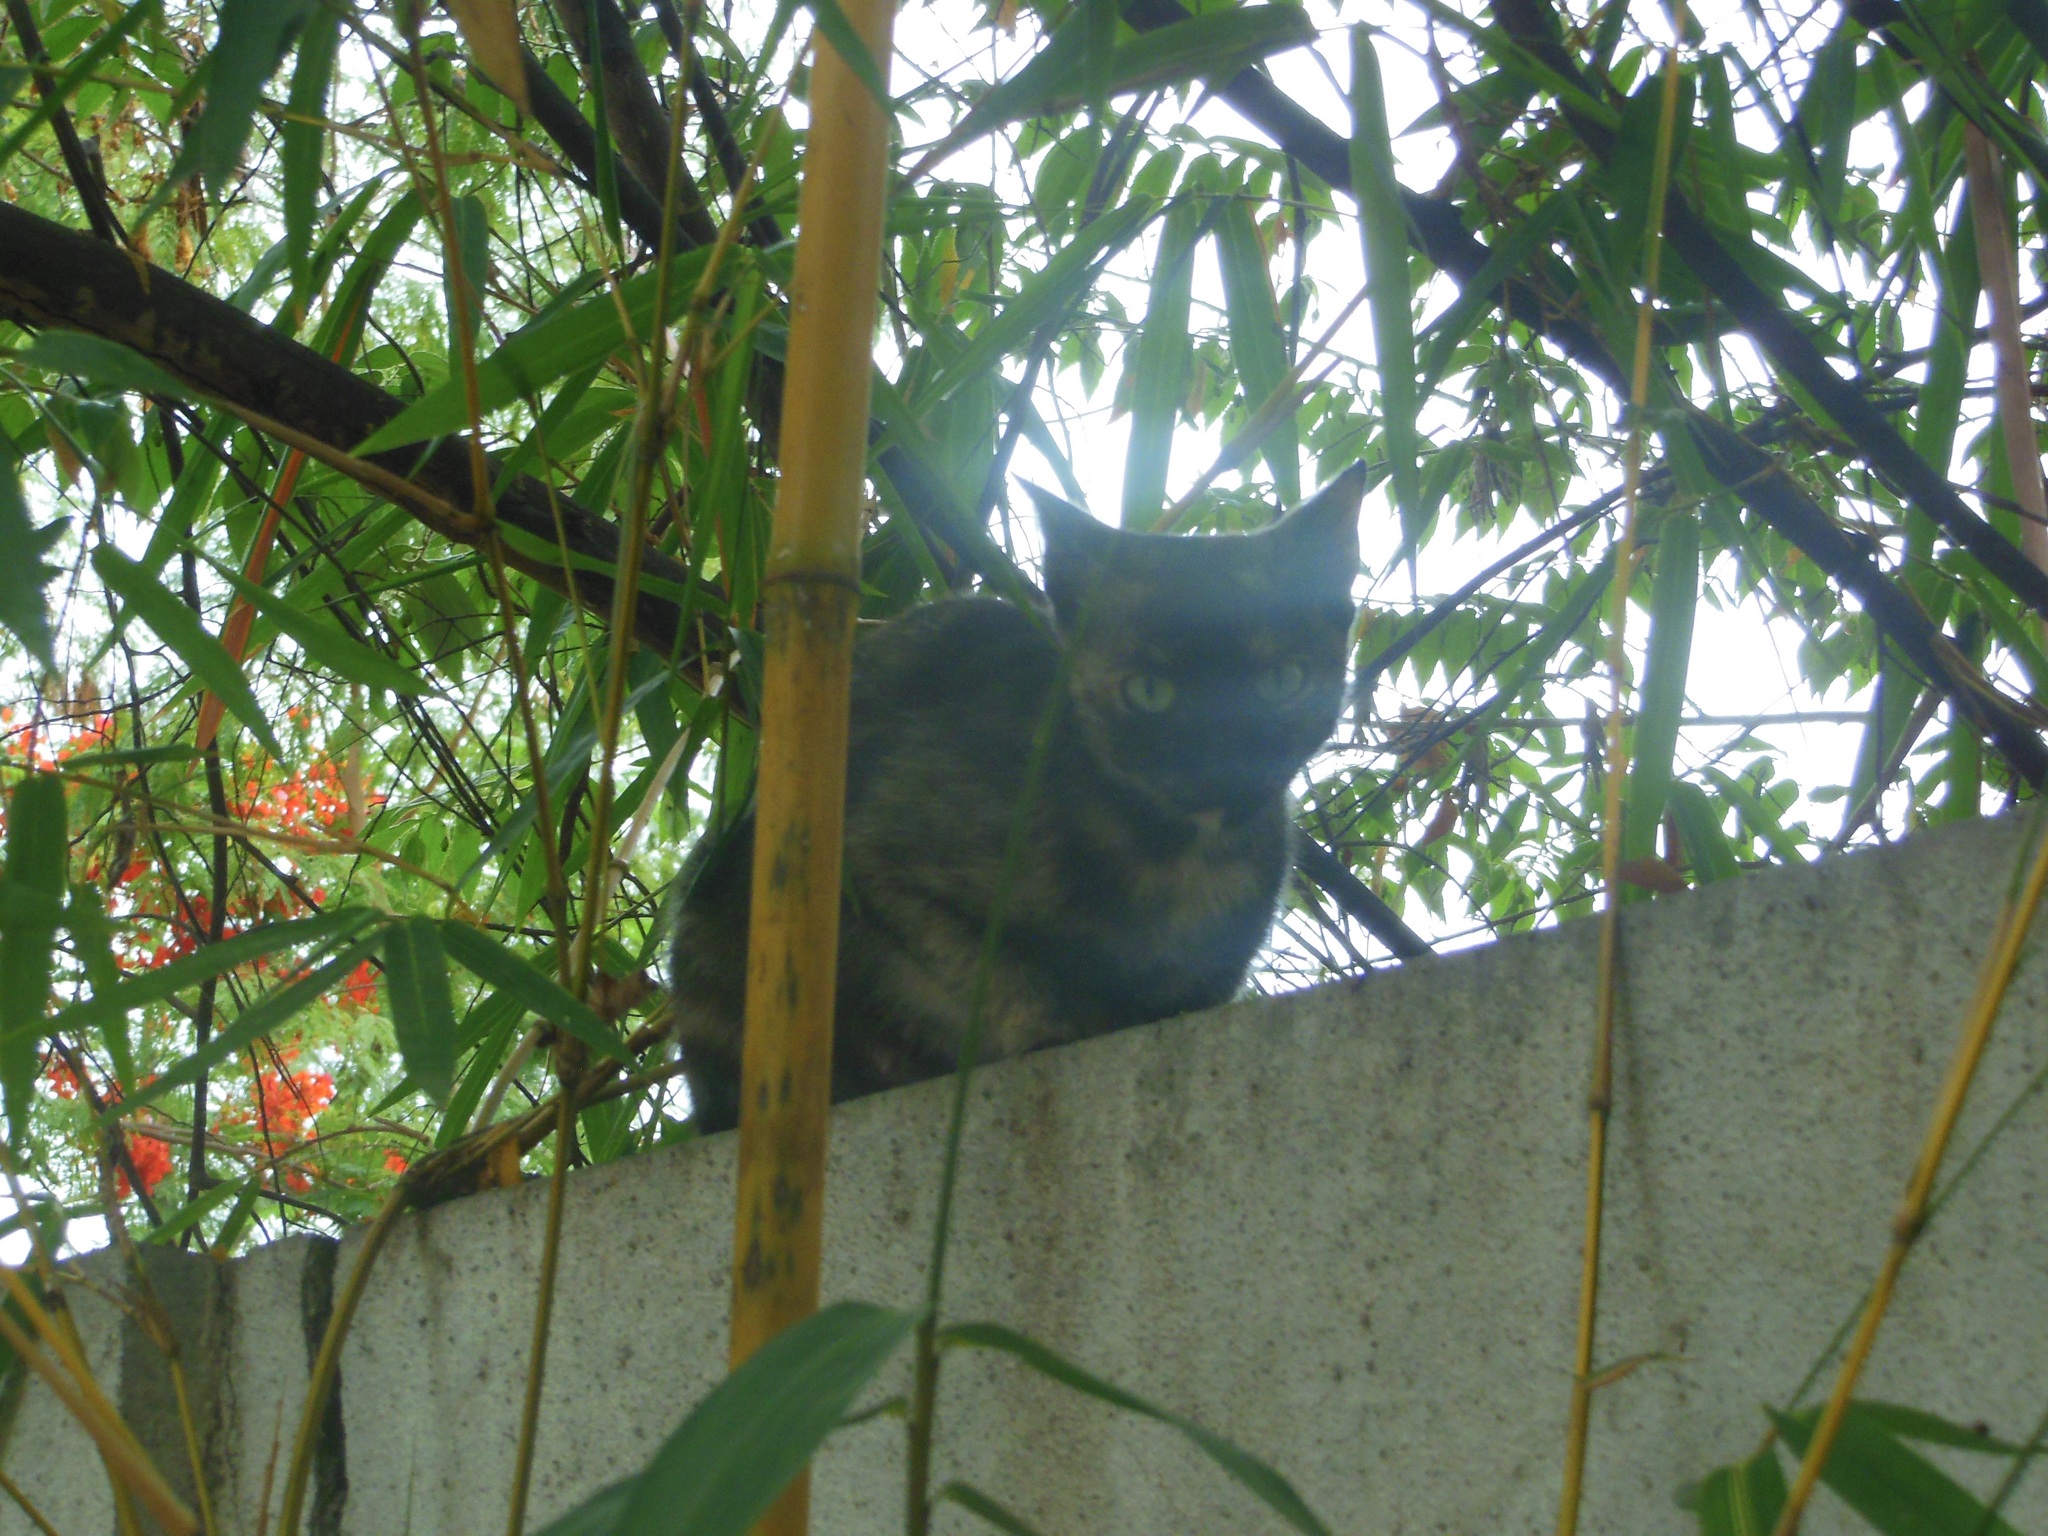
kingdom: Animalia
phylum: Chordata
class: Mammalia
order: Carnivora
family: Felidae
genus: Felis
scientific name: Felis catus
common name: Domestic cat
